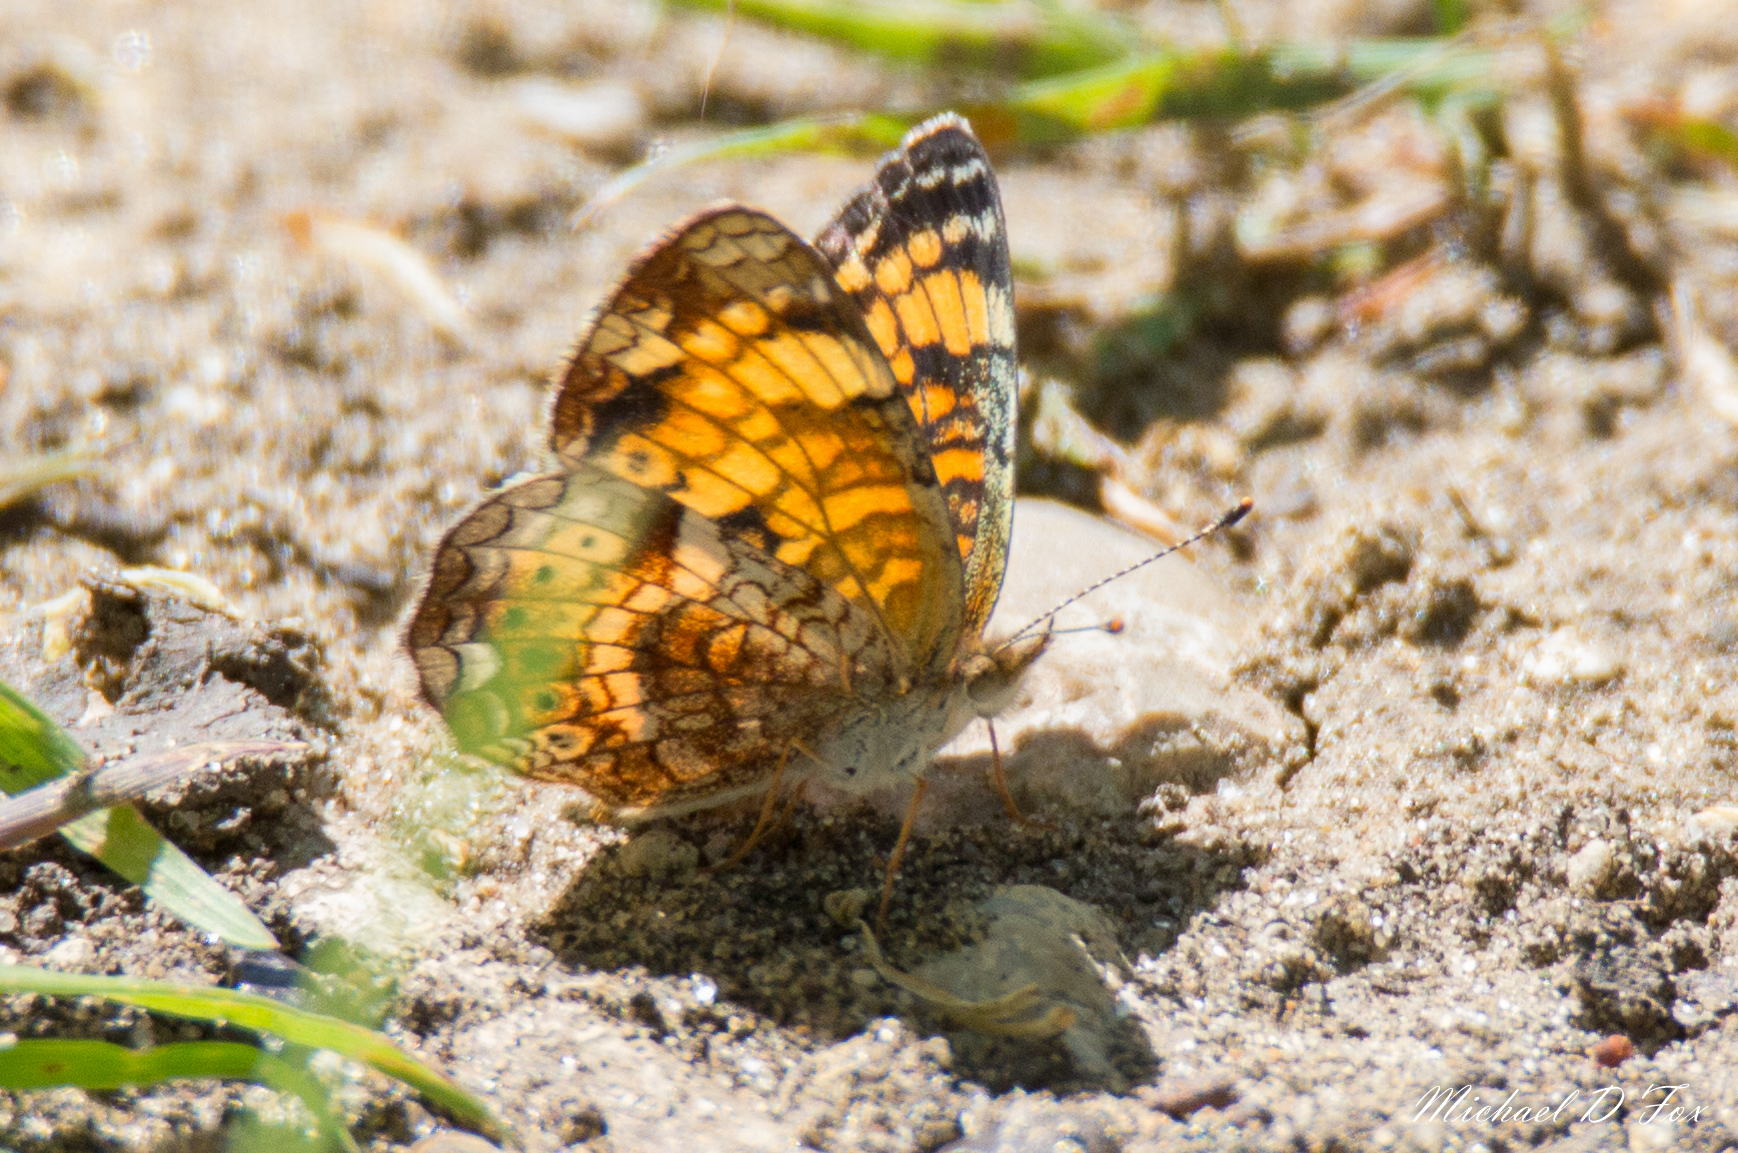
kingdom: Animalia
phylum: Arthropoda
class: Insecta
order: Lepidoptera
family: Nymphalidae
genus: Phyciodes
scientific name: Phyciodes tharos
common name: Pearl crescent
